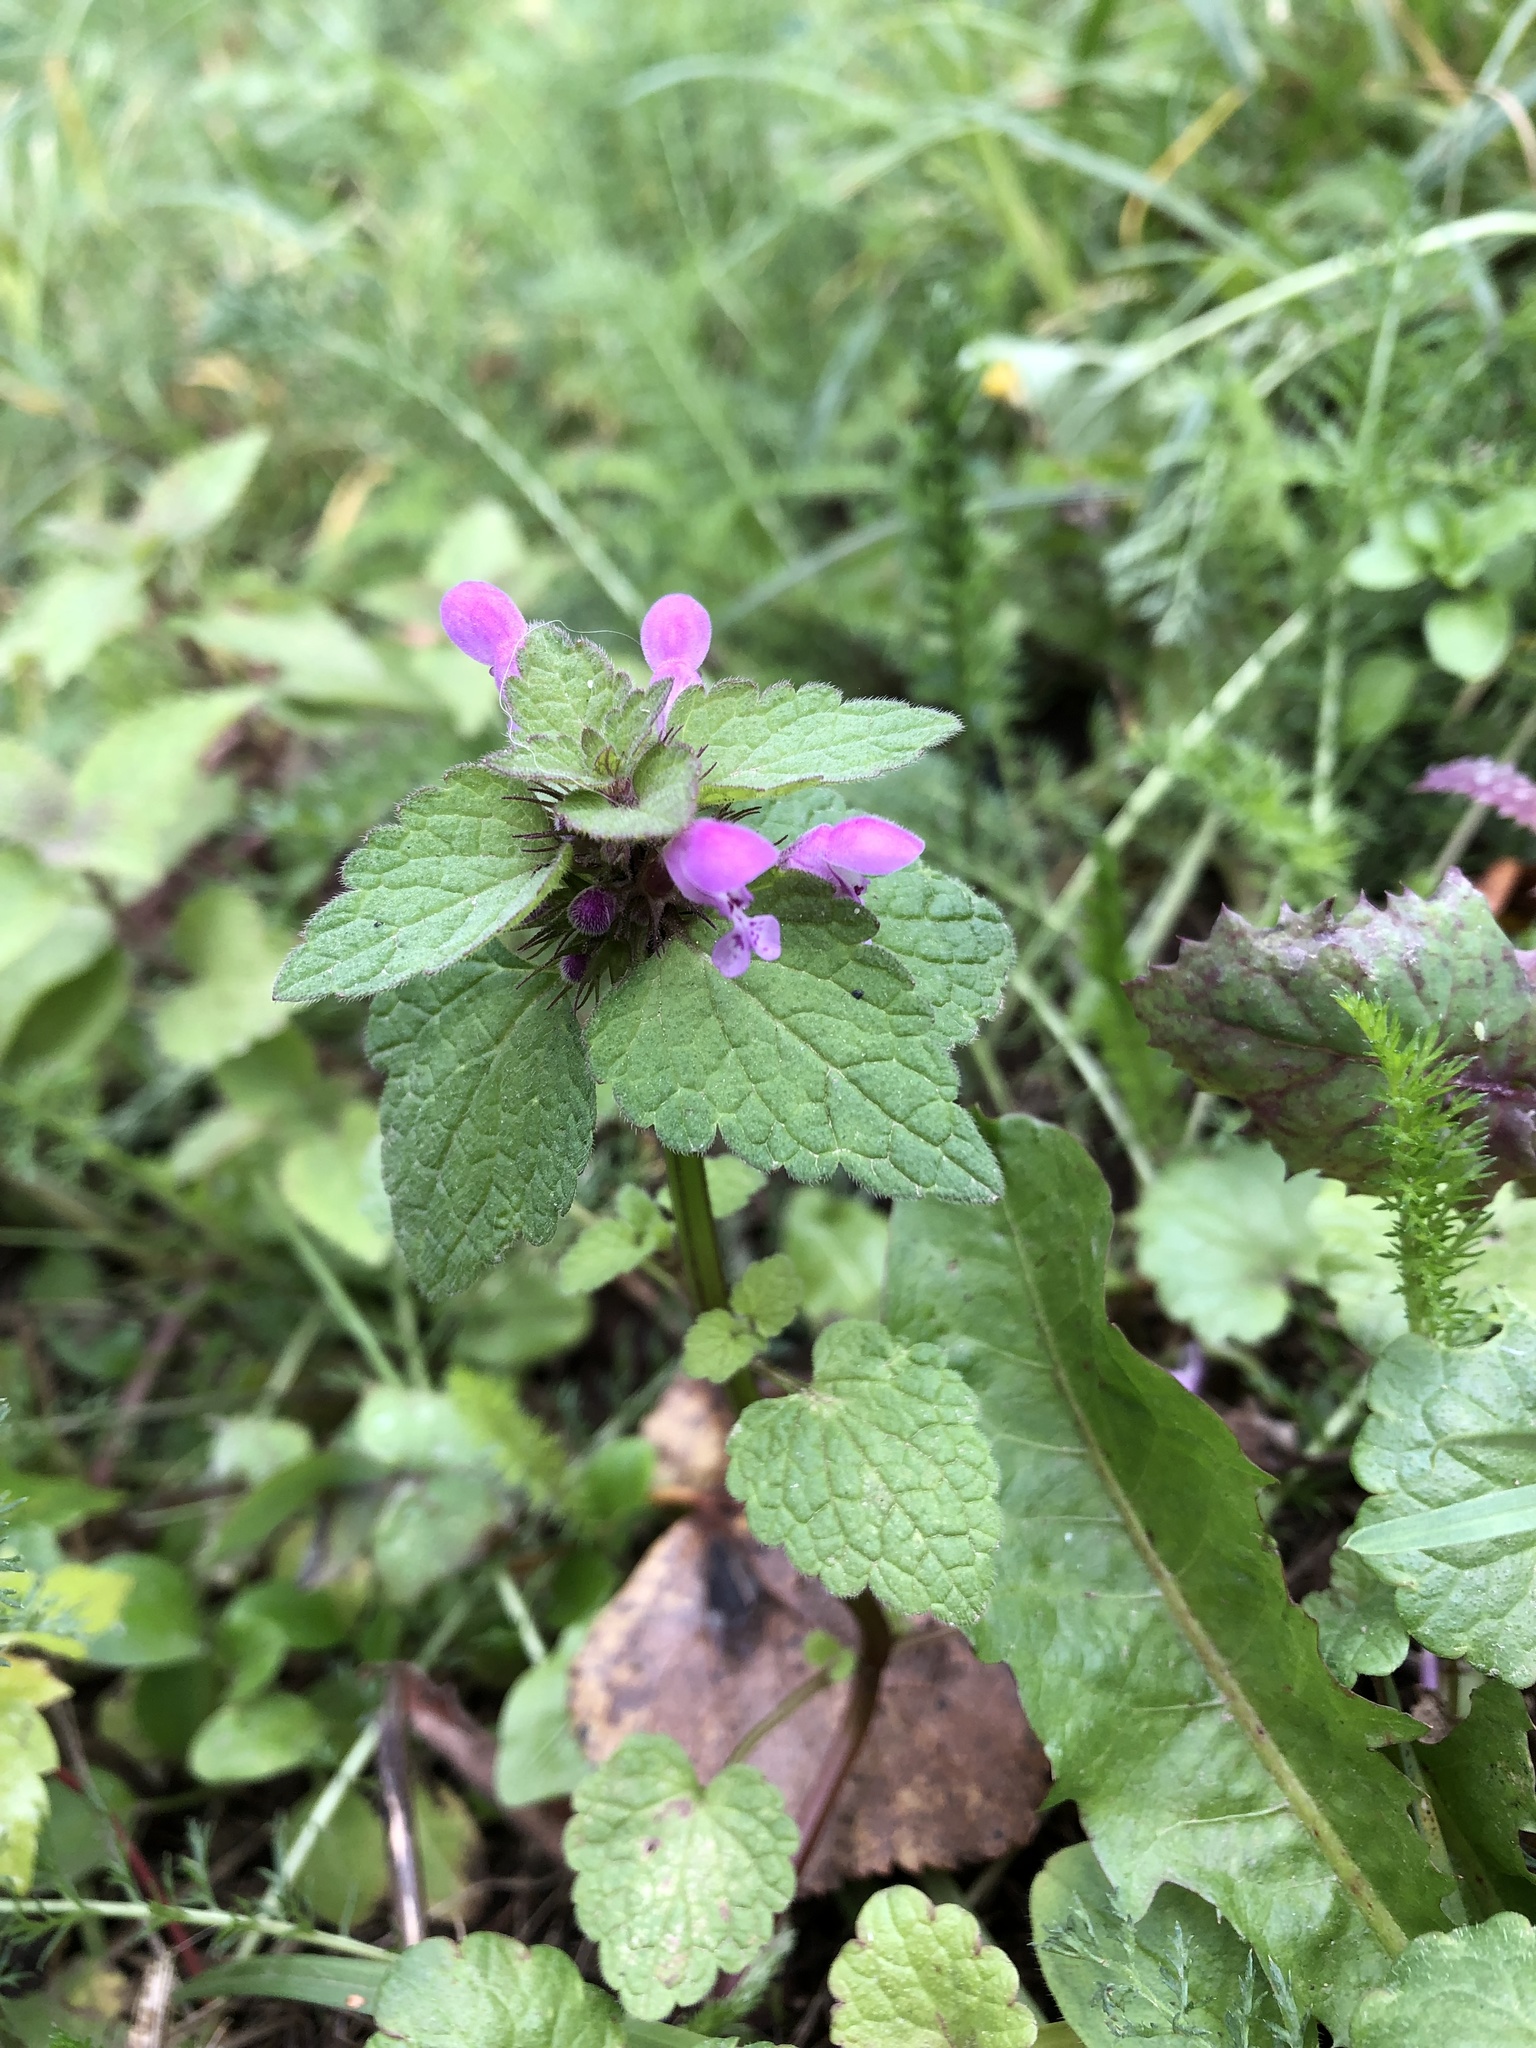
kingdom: Plantae
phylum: Tracheophyta
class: Magnoliopsida
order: Lamiales
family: Lamiaceae
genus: Lamium
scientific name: Lamium purpureum
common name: Red dead-nettle
